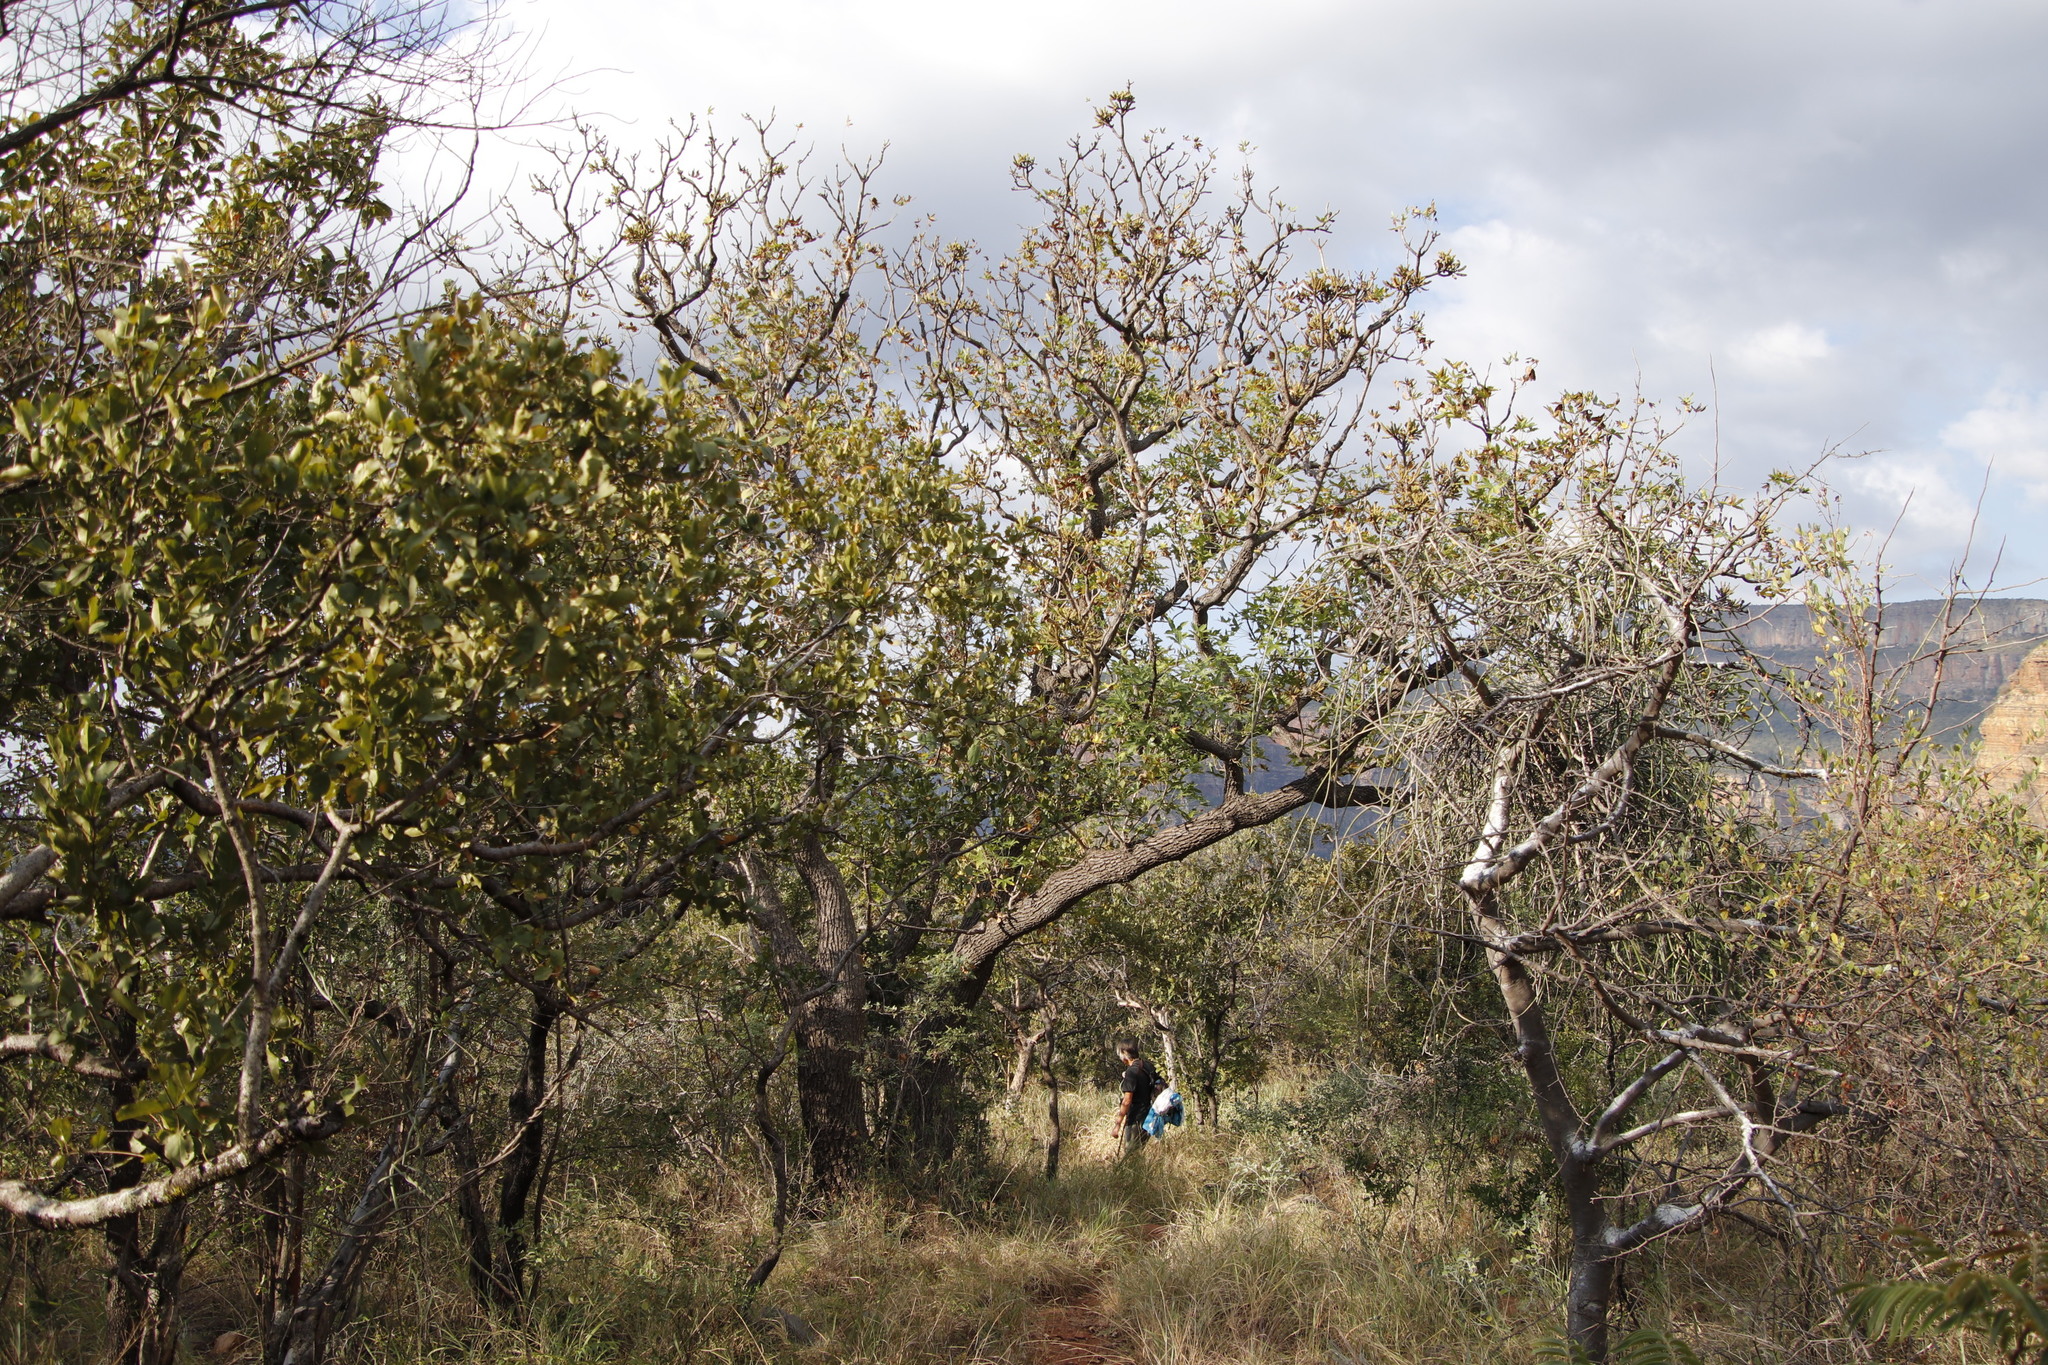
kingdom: Plantae
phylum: Tracheophyta
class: Magnoliopsida
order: Apiales
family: Araliaceae
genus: Cussonia
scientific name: Cussonia natalensis
